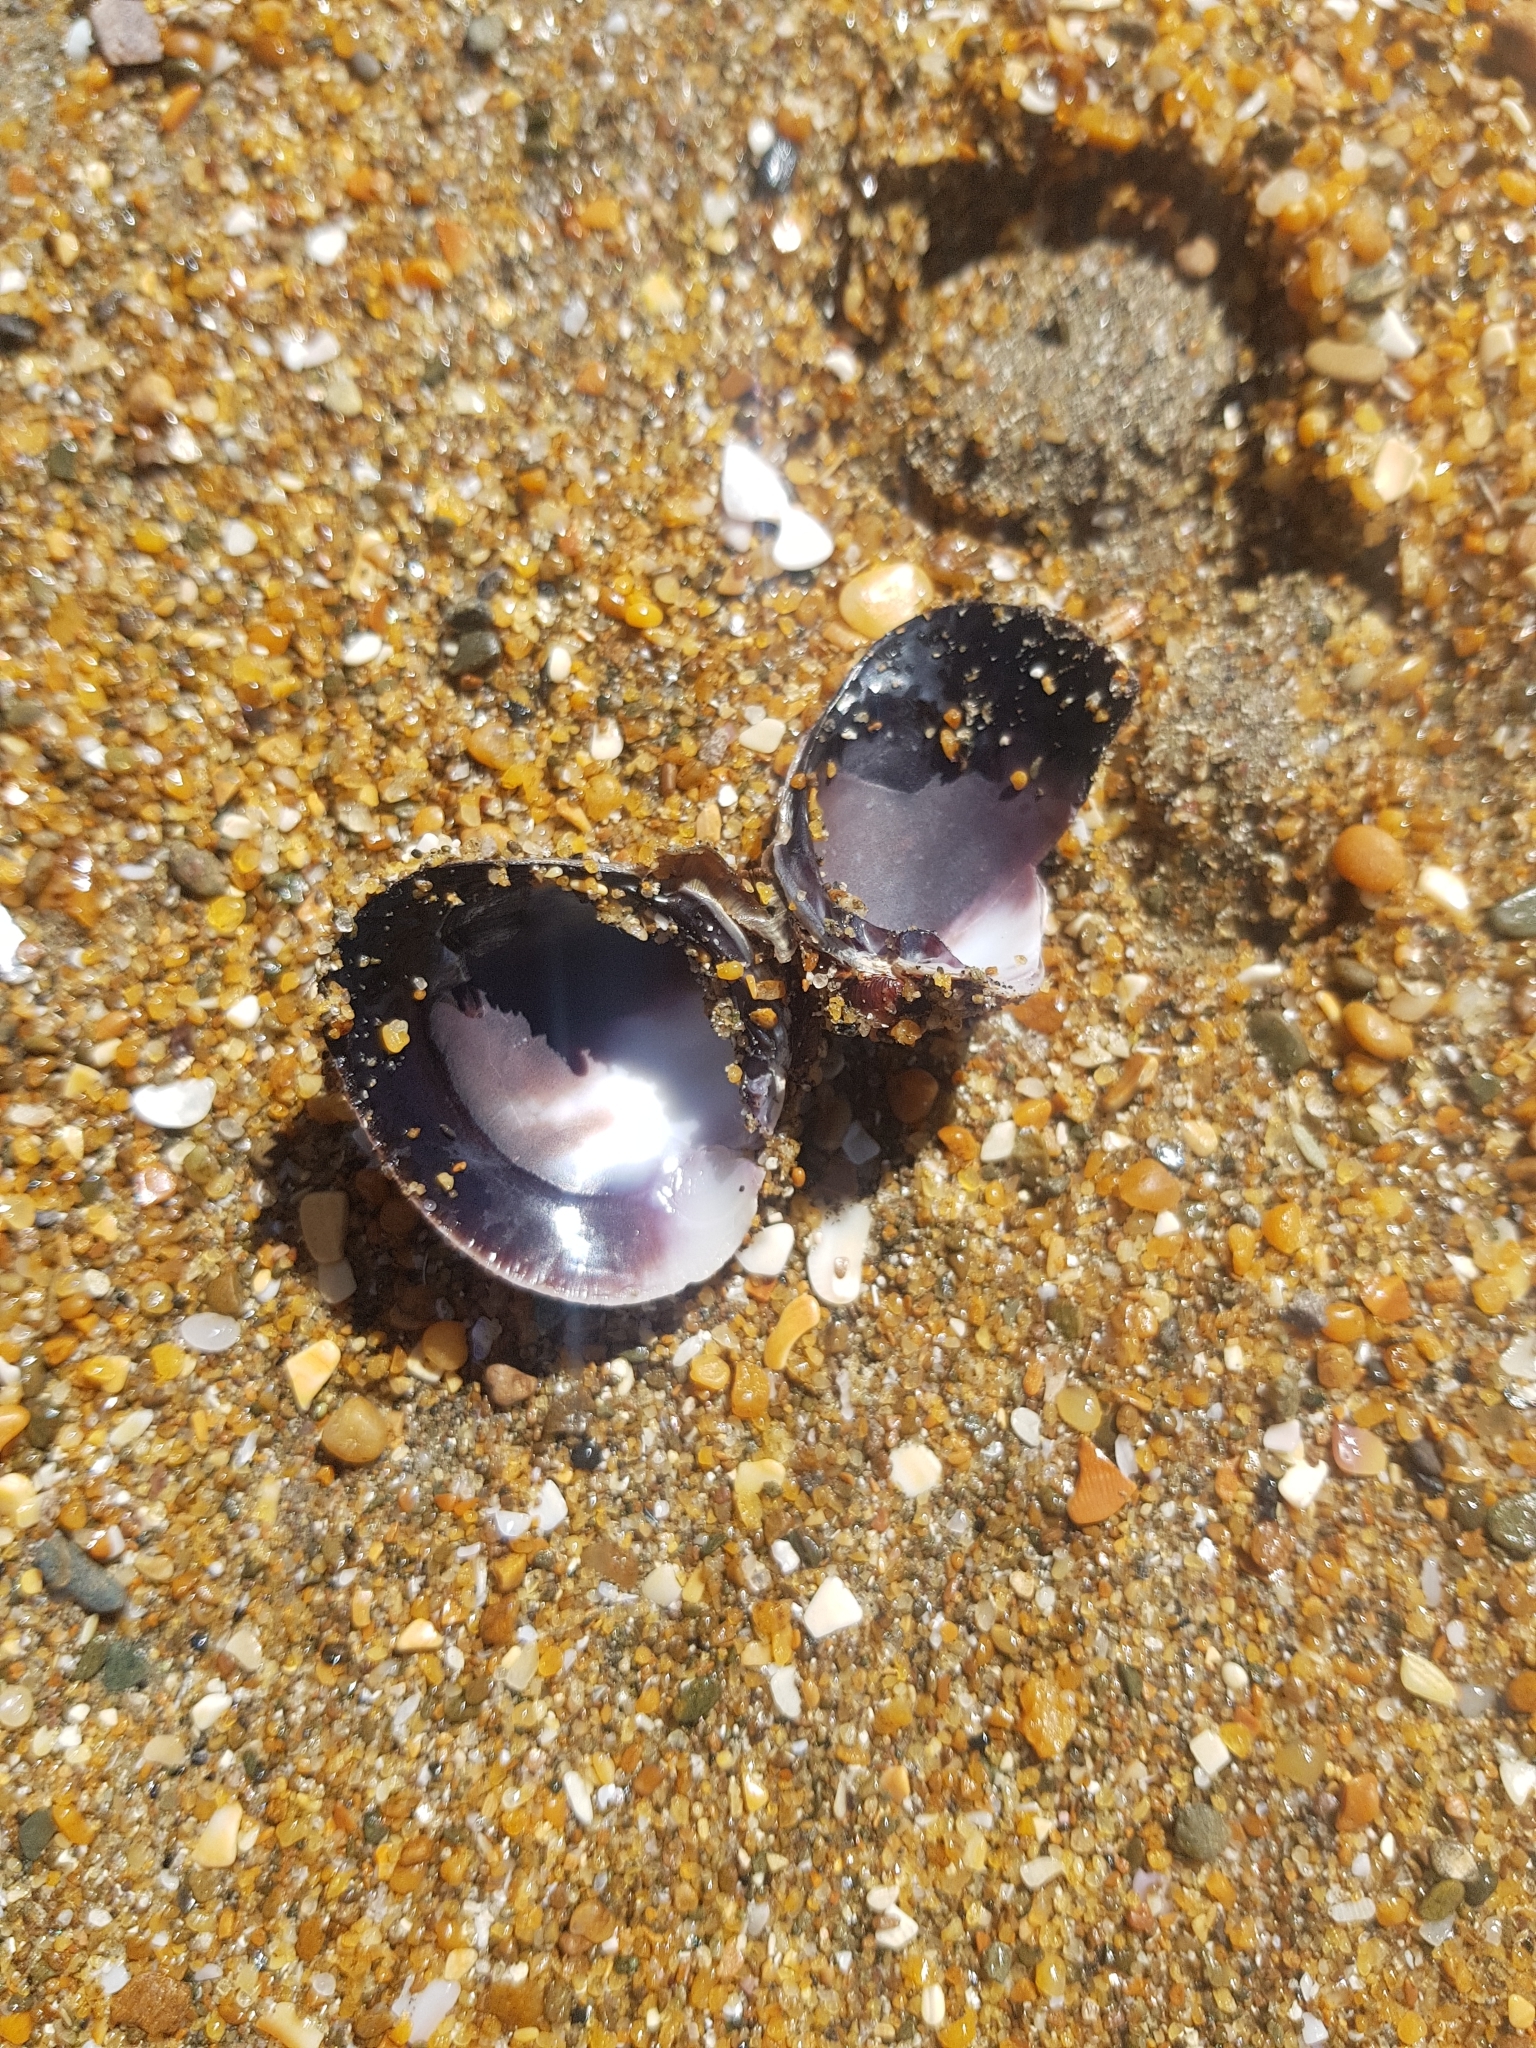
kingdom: Animalia
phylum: Mollusca
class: Bivalvia
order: Venerida
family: Veneridae
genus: Austrovenus
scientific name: Austrovenus stutchburyi
